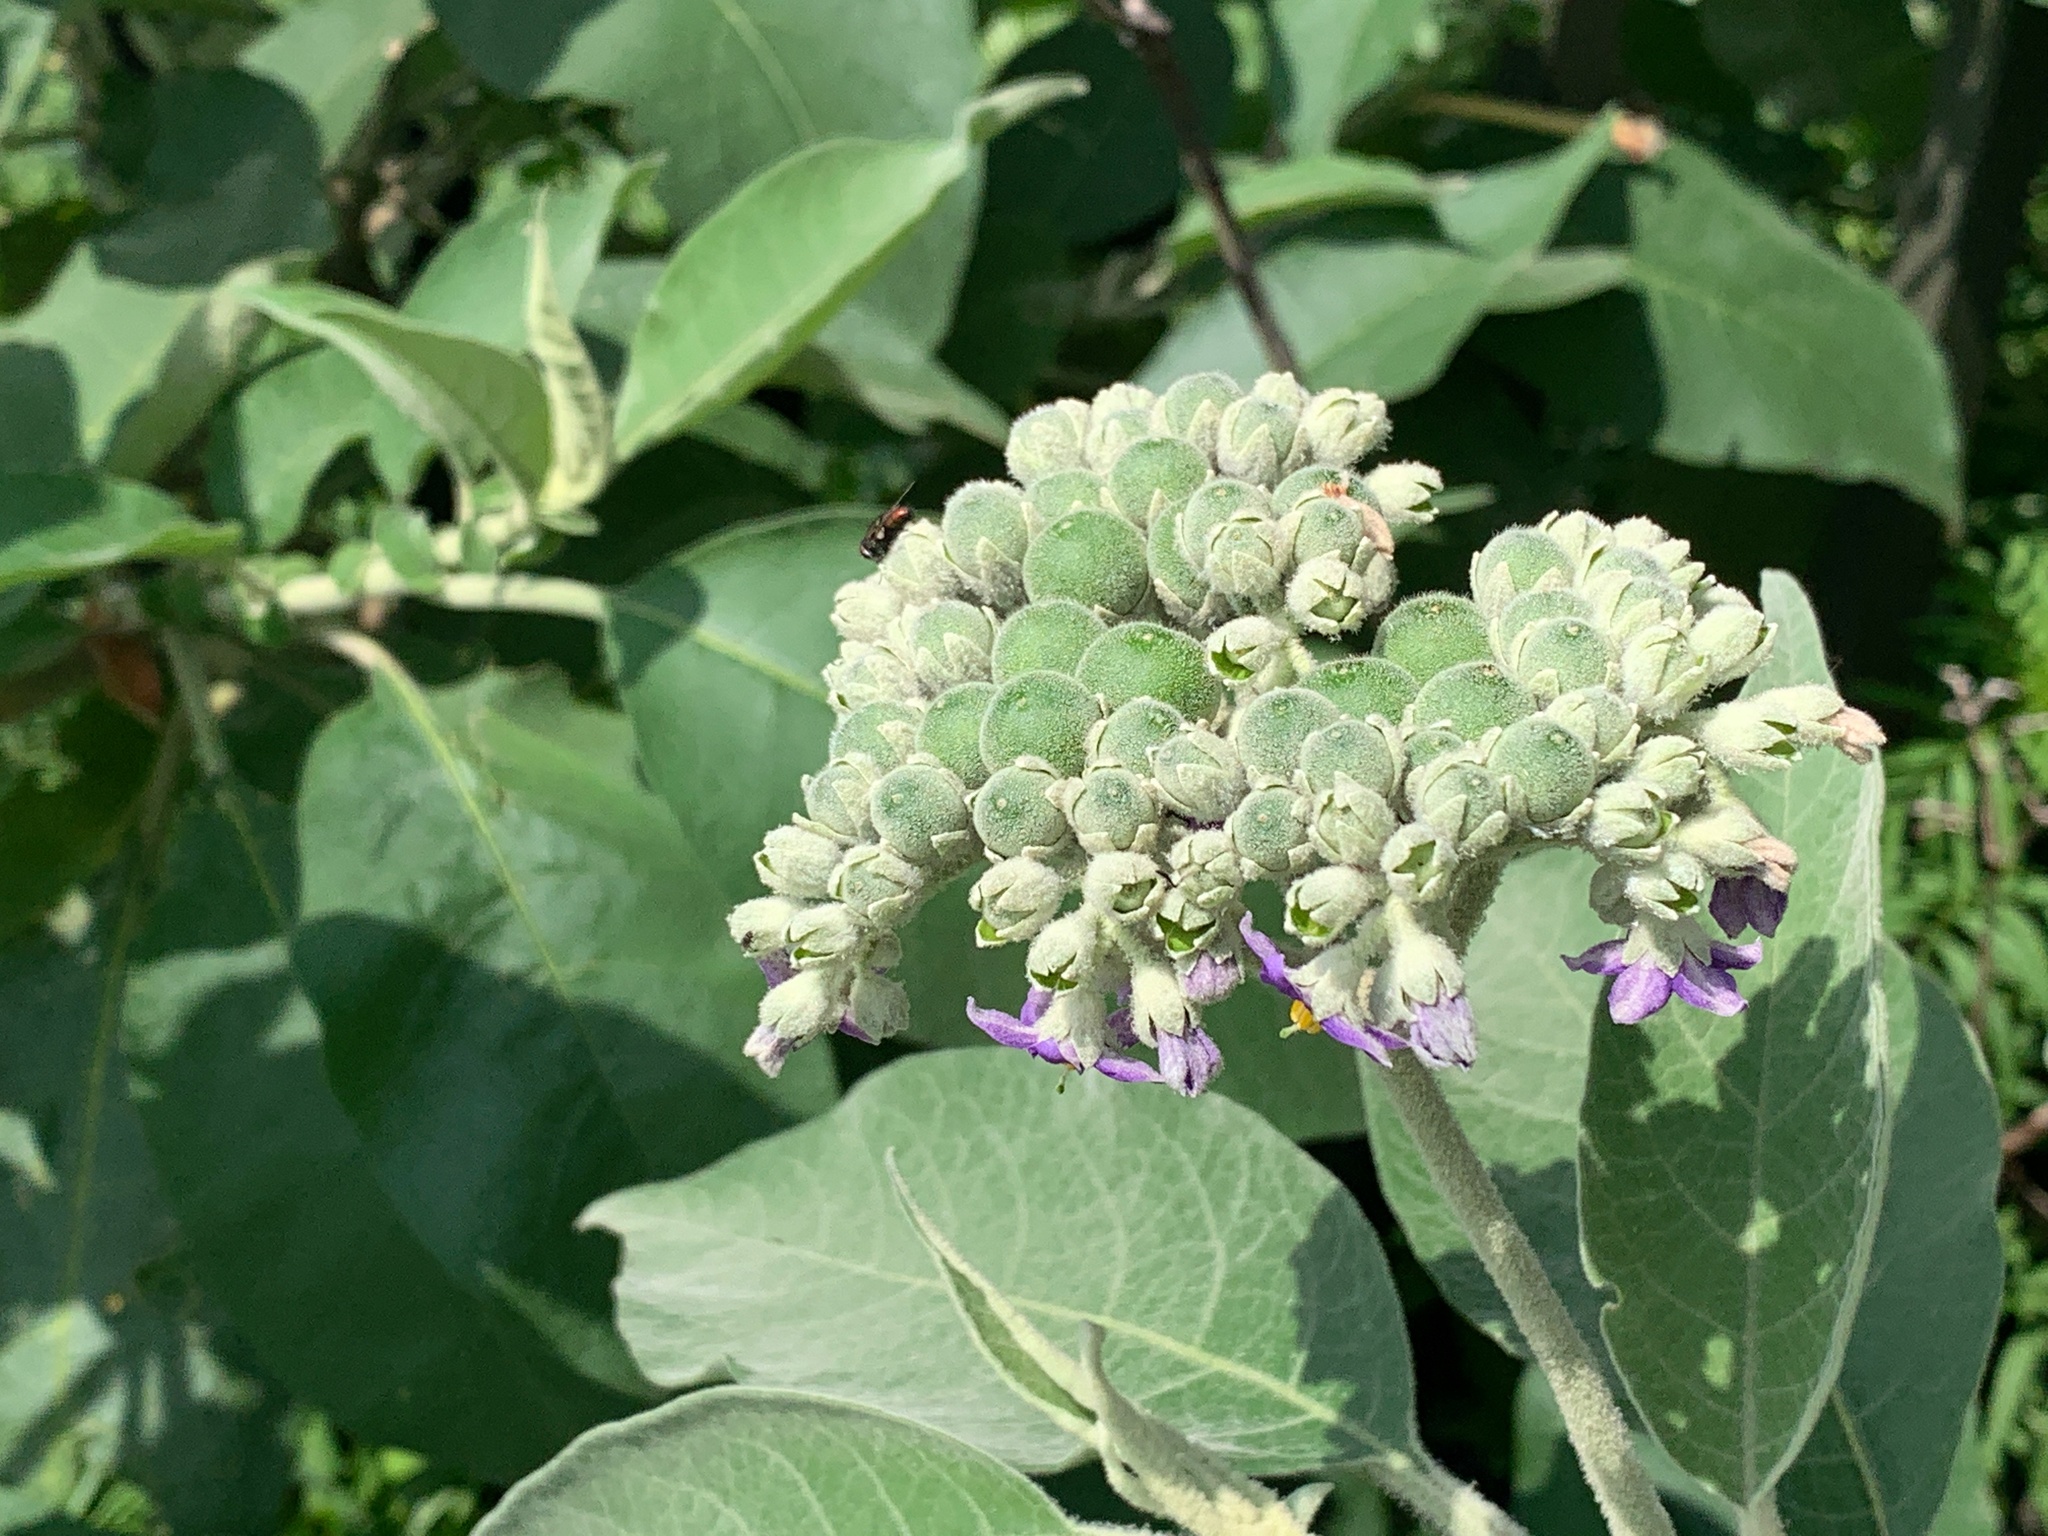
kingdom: Plantae
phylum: Tracheophyta
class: Magnoliopsida
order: Solanales
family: Solanaceae
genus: Solanum
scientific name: Solanum mauritianum
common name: Earleaf nightshade
